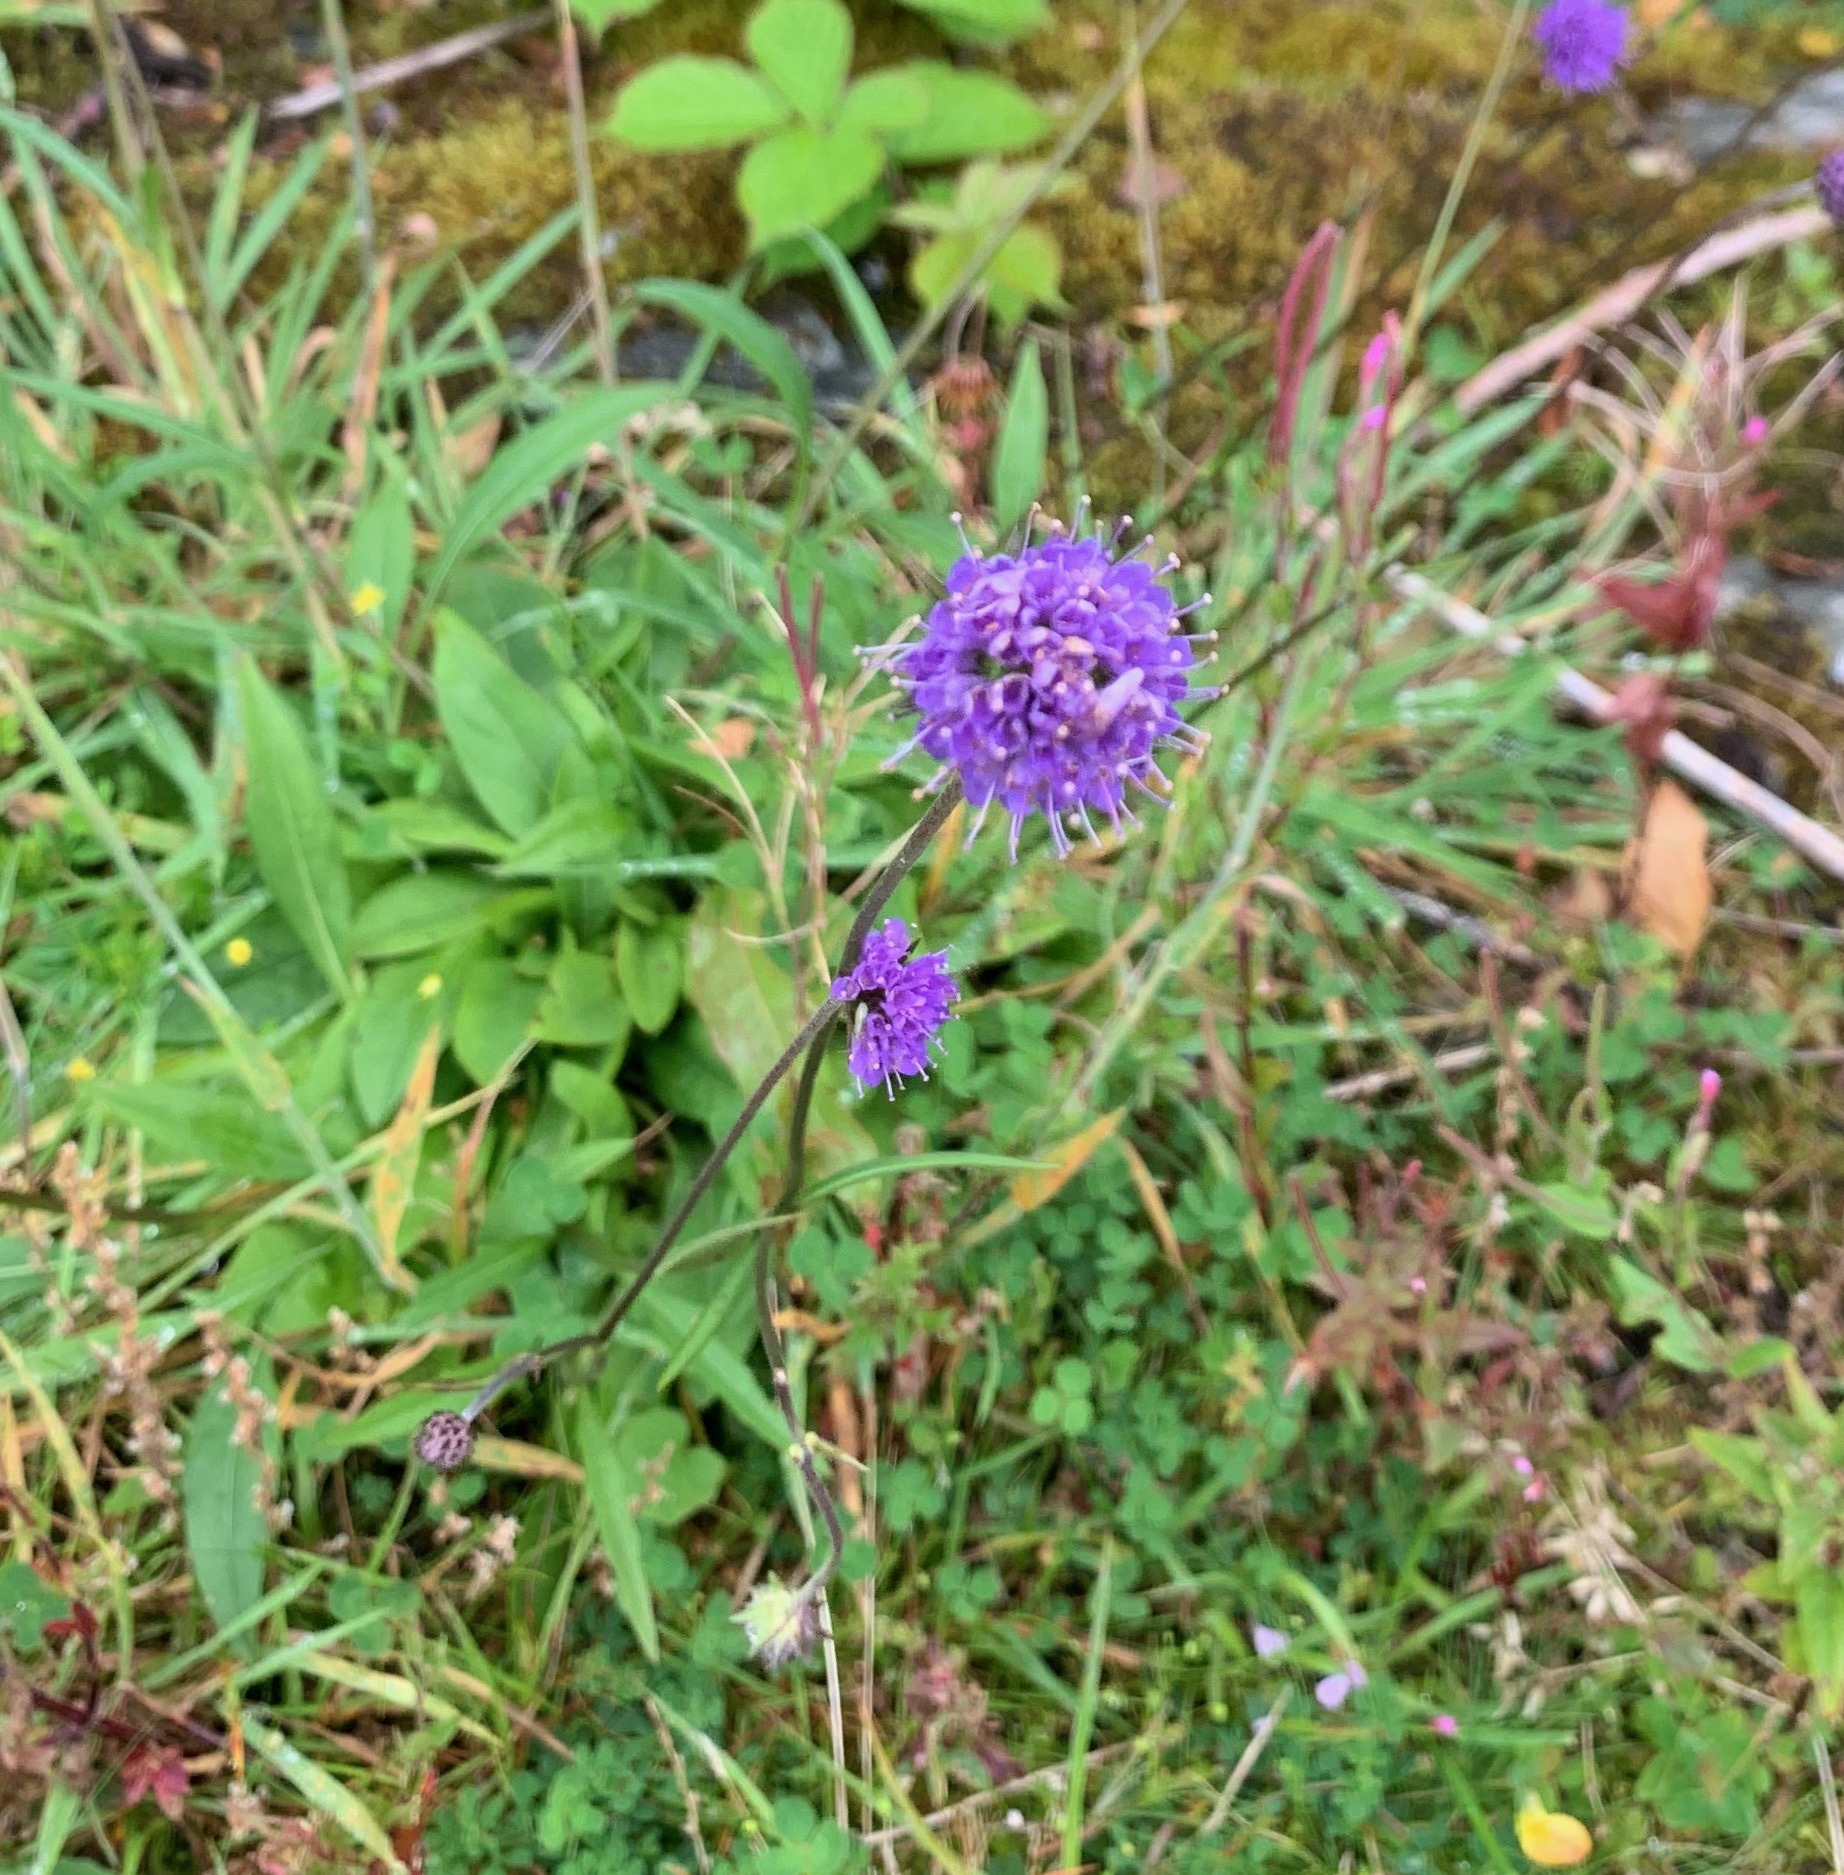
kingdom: Plantae
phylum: Tracheophyta
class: Magnoliopsida
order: Dipsacales
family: Caprifoliaceae
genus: Succisa
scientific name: Succisa pratensis
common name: Devil's-bit
